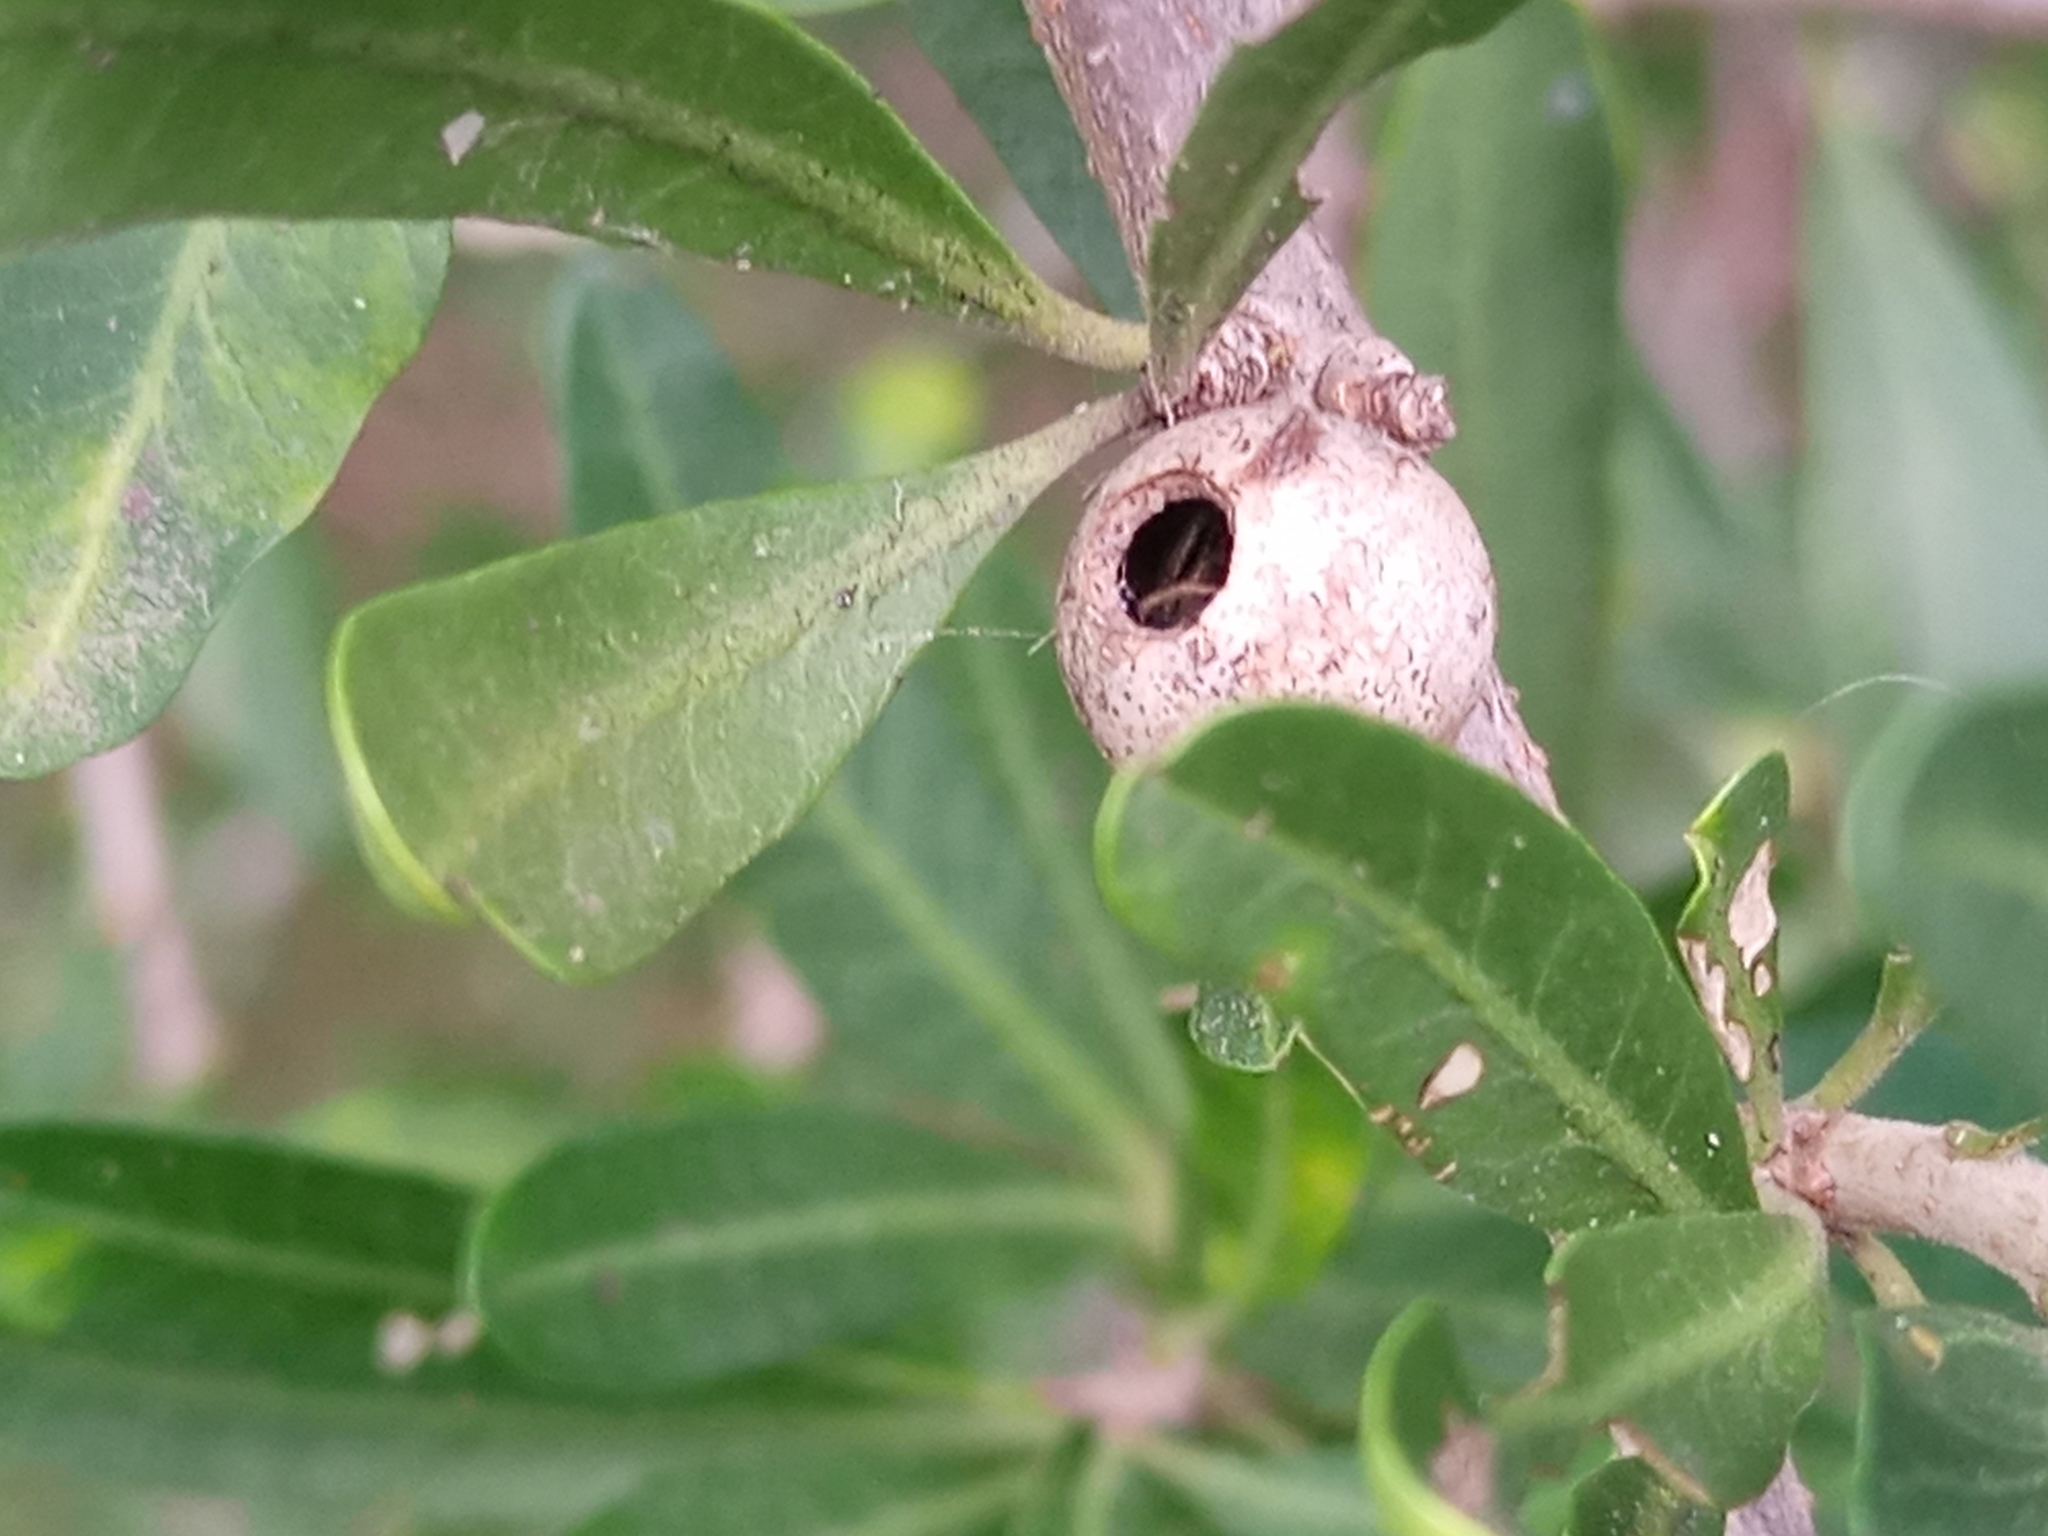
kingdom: Animalia
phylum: Arthropoda
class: Insecta
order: Lepidoptera
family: Cecidosidae
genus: Cecidoses
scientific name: Cecidoses eremita
